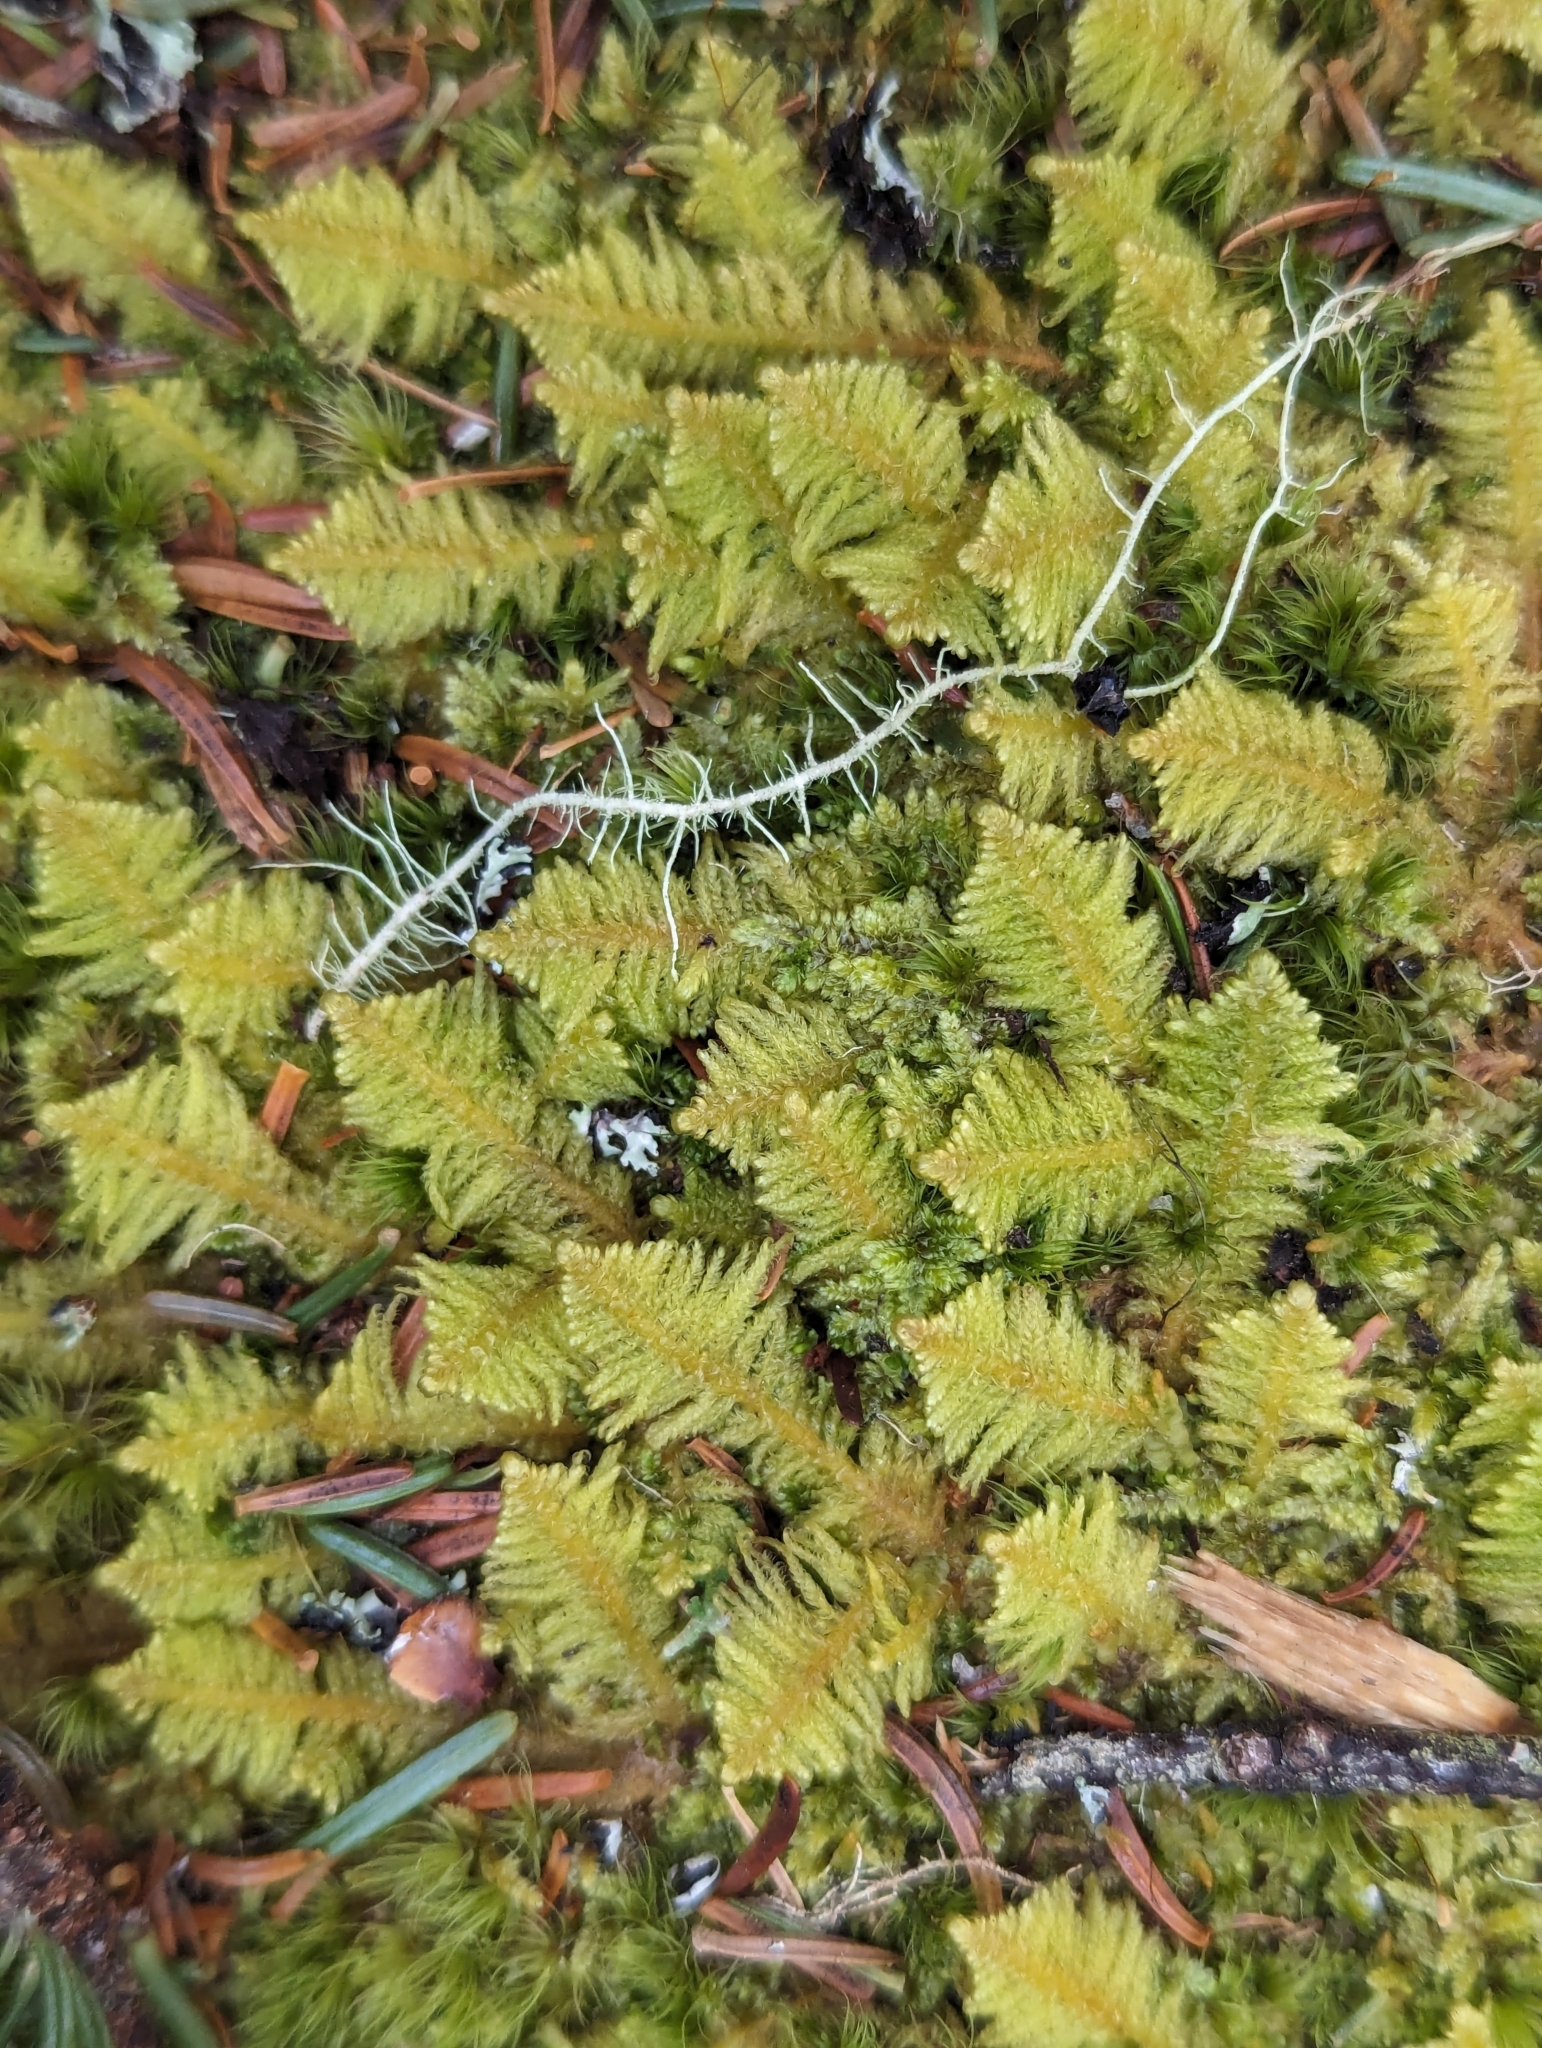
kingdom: Plantae
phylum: Bryophyta
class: Bryopsida
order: Hypnales
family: Pylaisiaceae
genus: Ptilium
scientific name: Ptilium crista-castrensis
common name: Knight's plume moss
